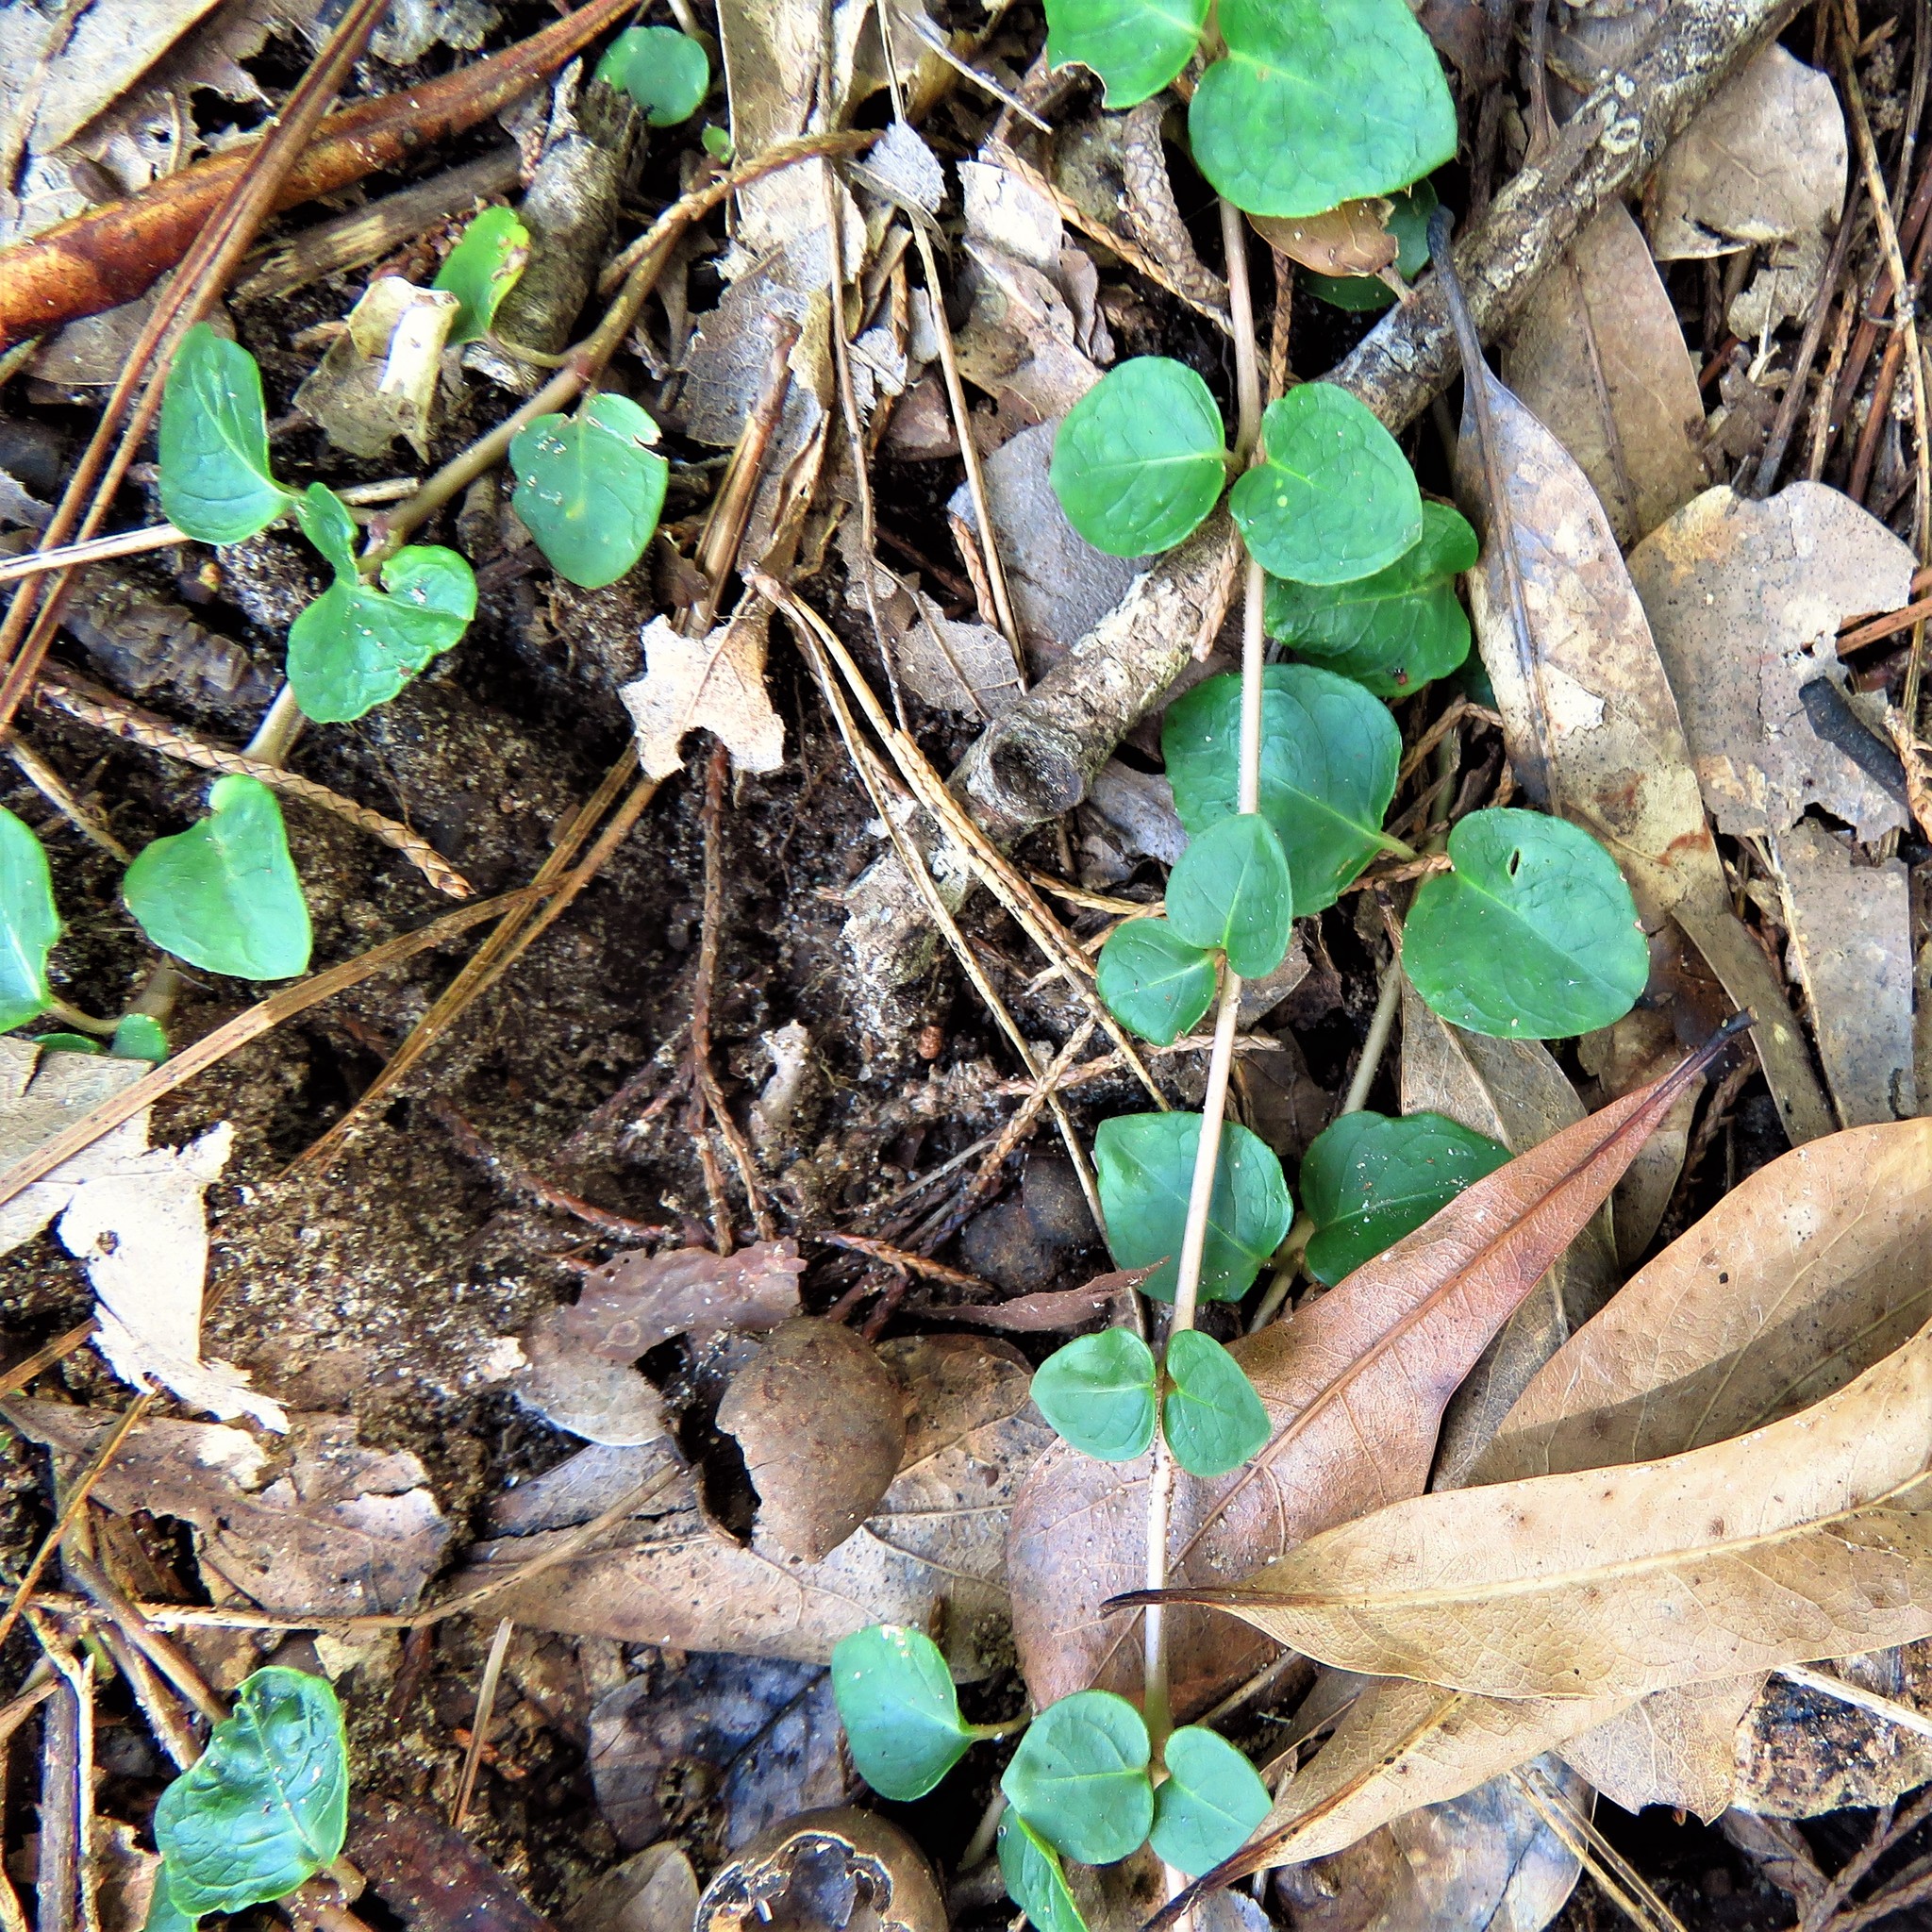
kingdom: Plantae
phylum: Tracheophyta
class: Magnoliopsida
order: Gentianales
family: Rubiaceae
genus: Mitchella
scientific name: Mitchella repens
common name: Partridge-berry
